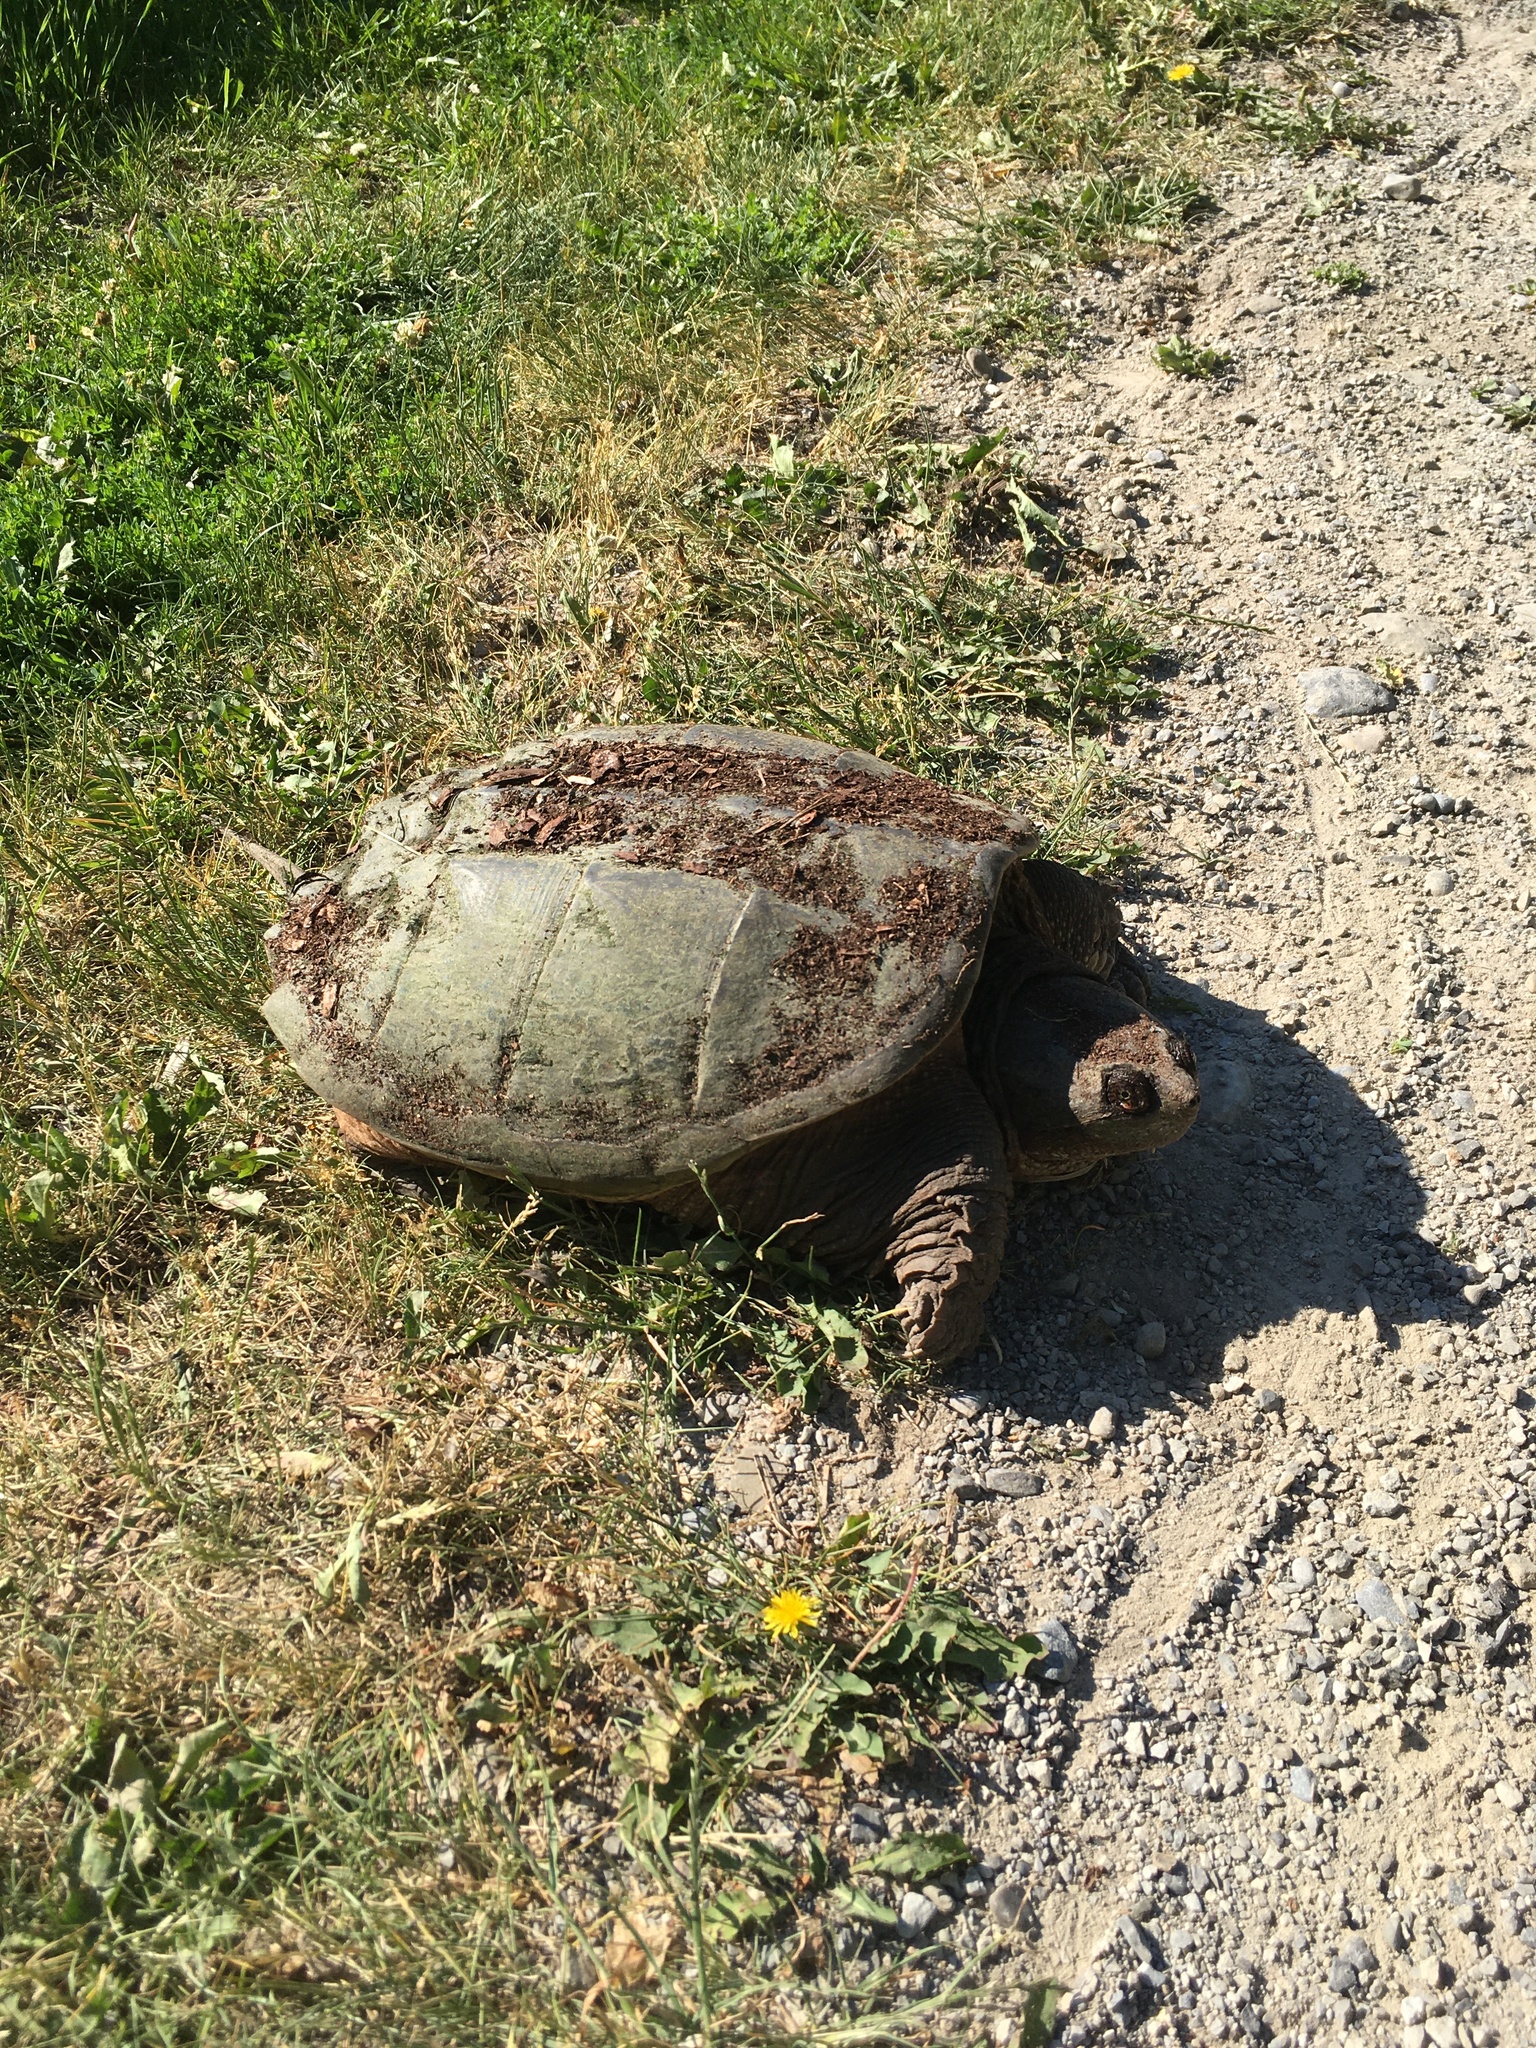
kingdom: Animalia
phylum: Chordata
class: Testudines
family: Chelydridae
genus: Chelydra
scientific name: Chelydra serpentina
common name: Common snapping turtle
